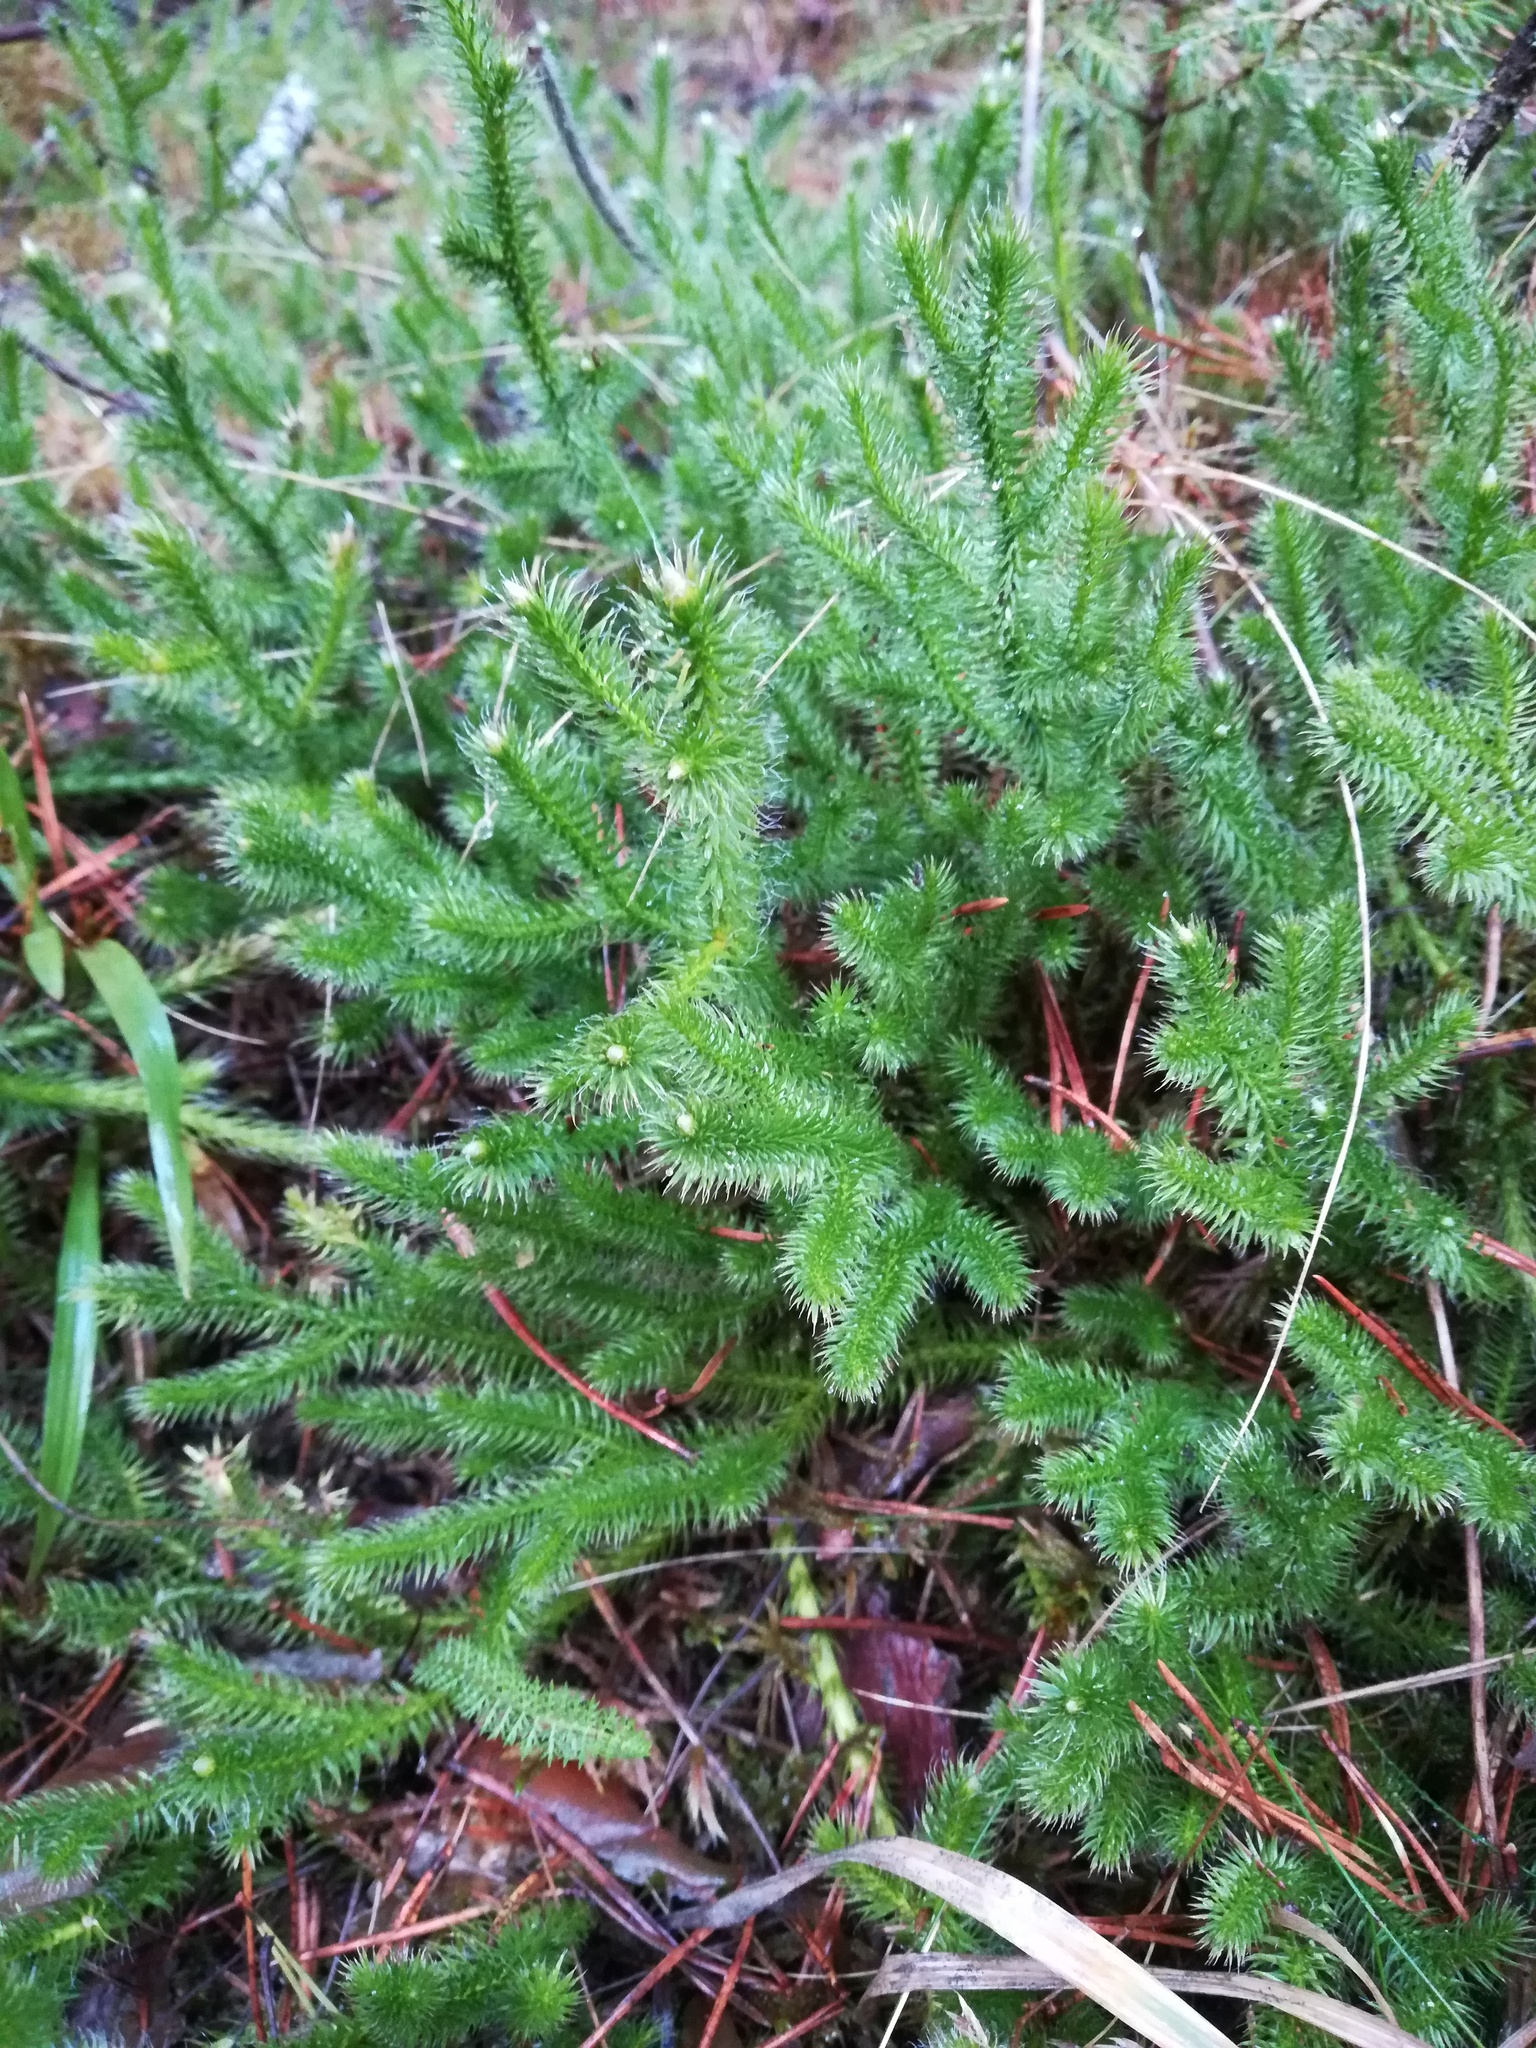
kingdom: Plantae
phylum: Tracheophyta
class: Lycopodiopsida
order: Lycopodiales
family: Lycopodiaceae
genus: Lycopodium
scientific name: Lycopodium clavatum
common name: Stag's-horn clubmoss
